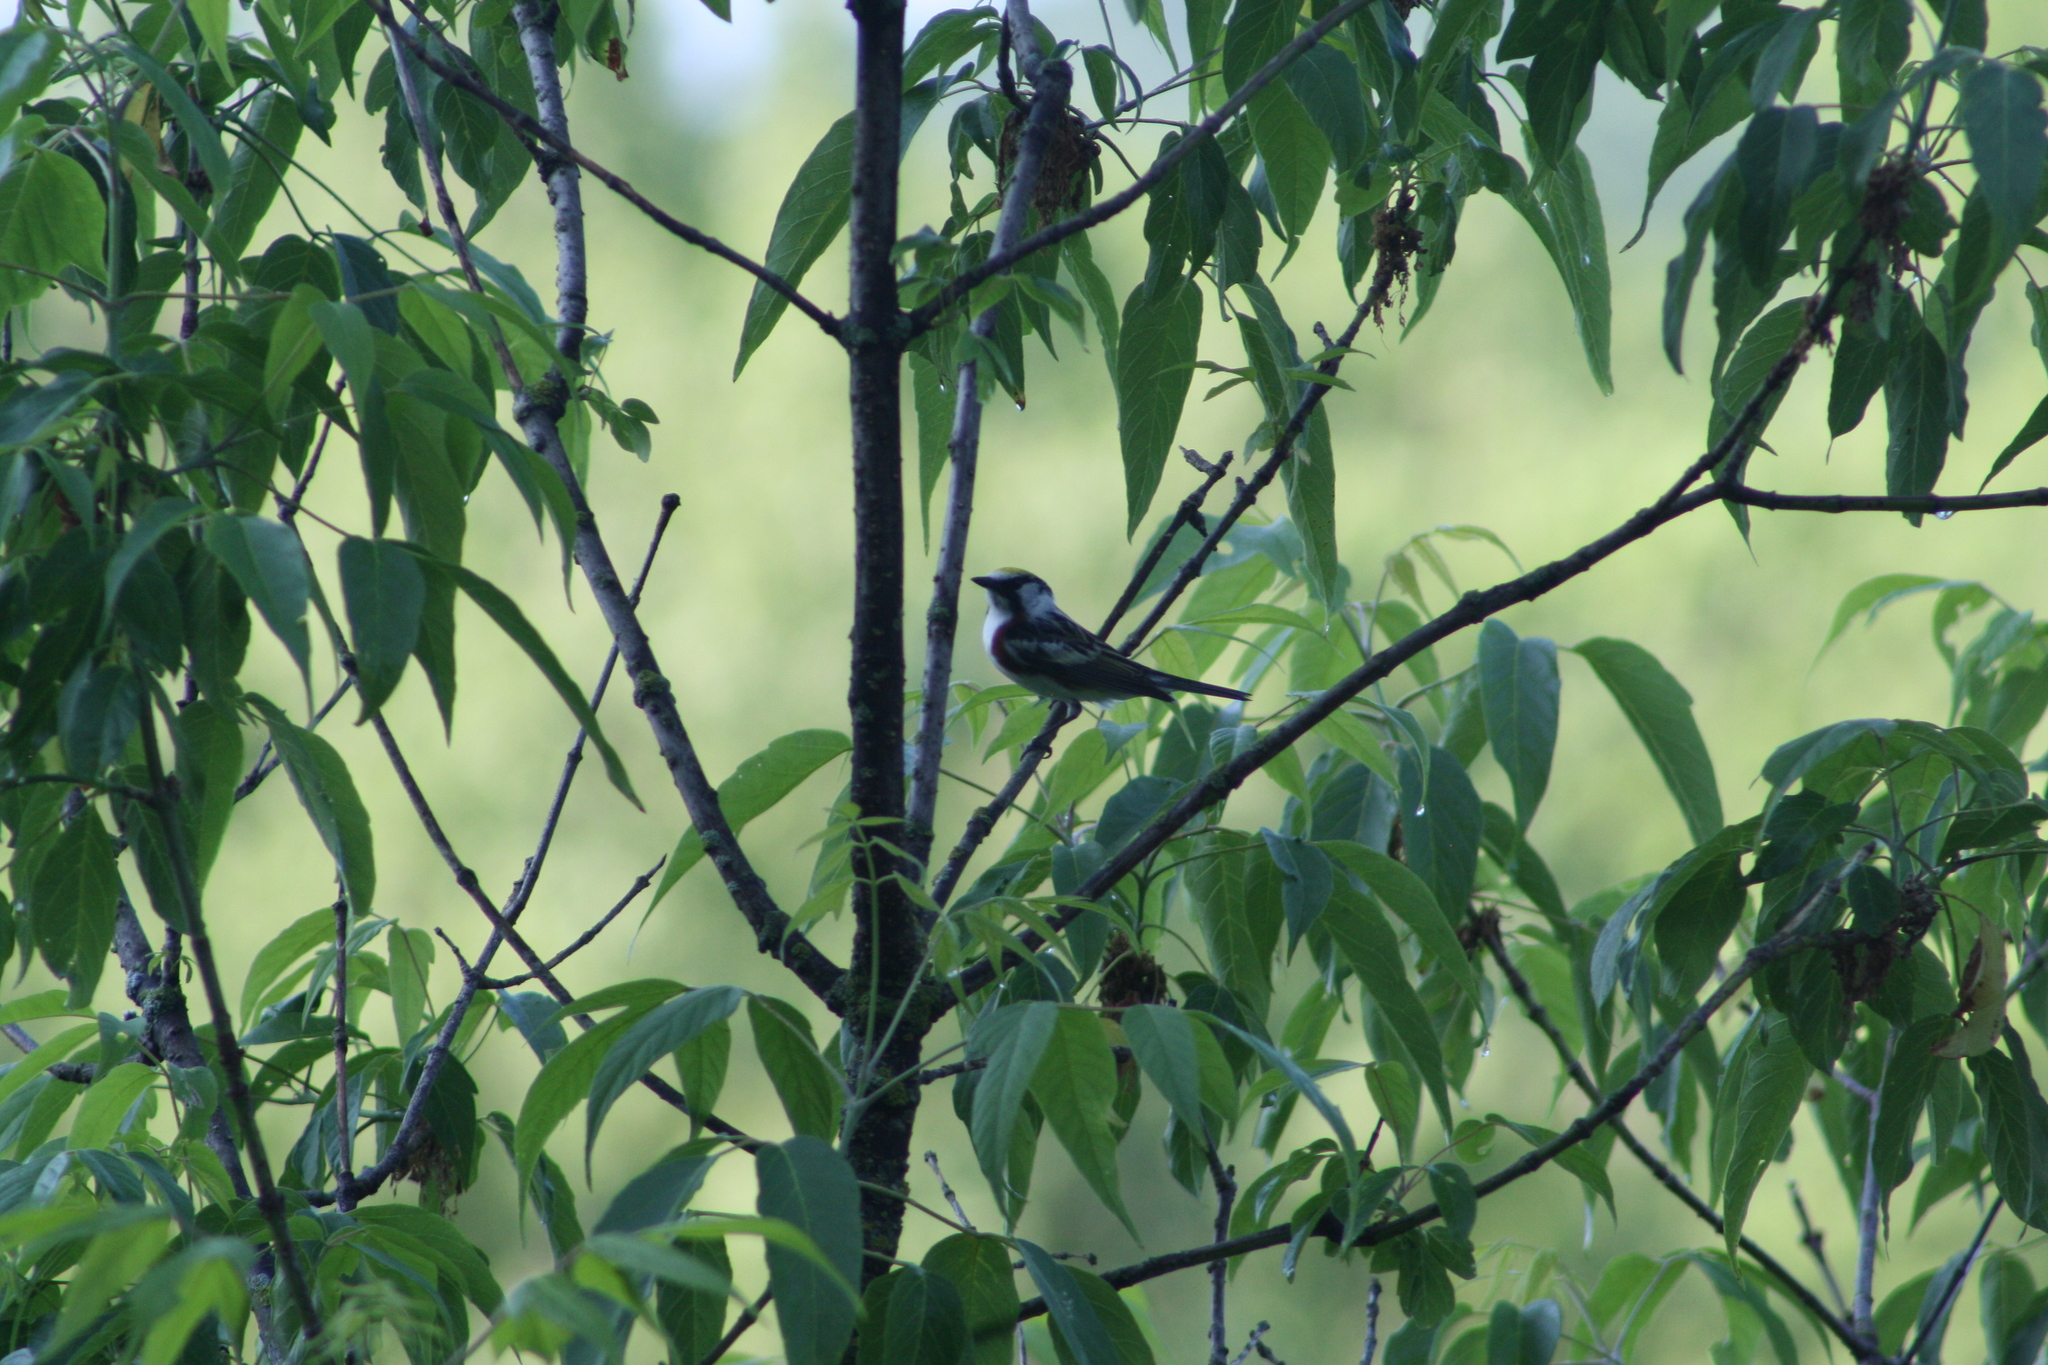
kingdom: Animalia
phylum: Chordata
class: Aves
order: Passeriformes
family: Parulidae
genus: Setophaga
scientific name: Setophaga pensylvanica
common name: Chestnut-sided warbler
